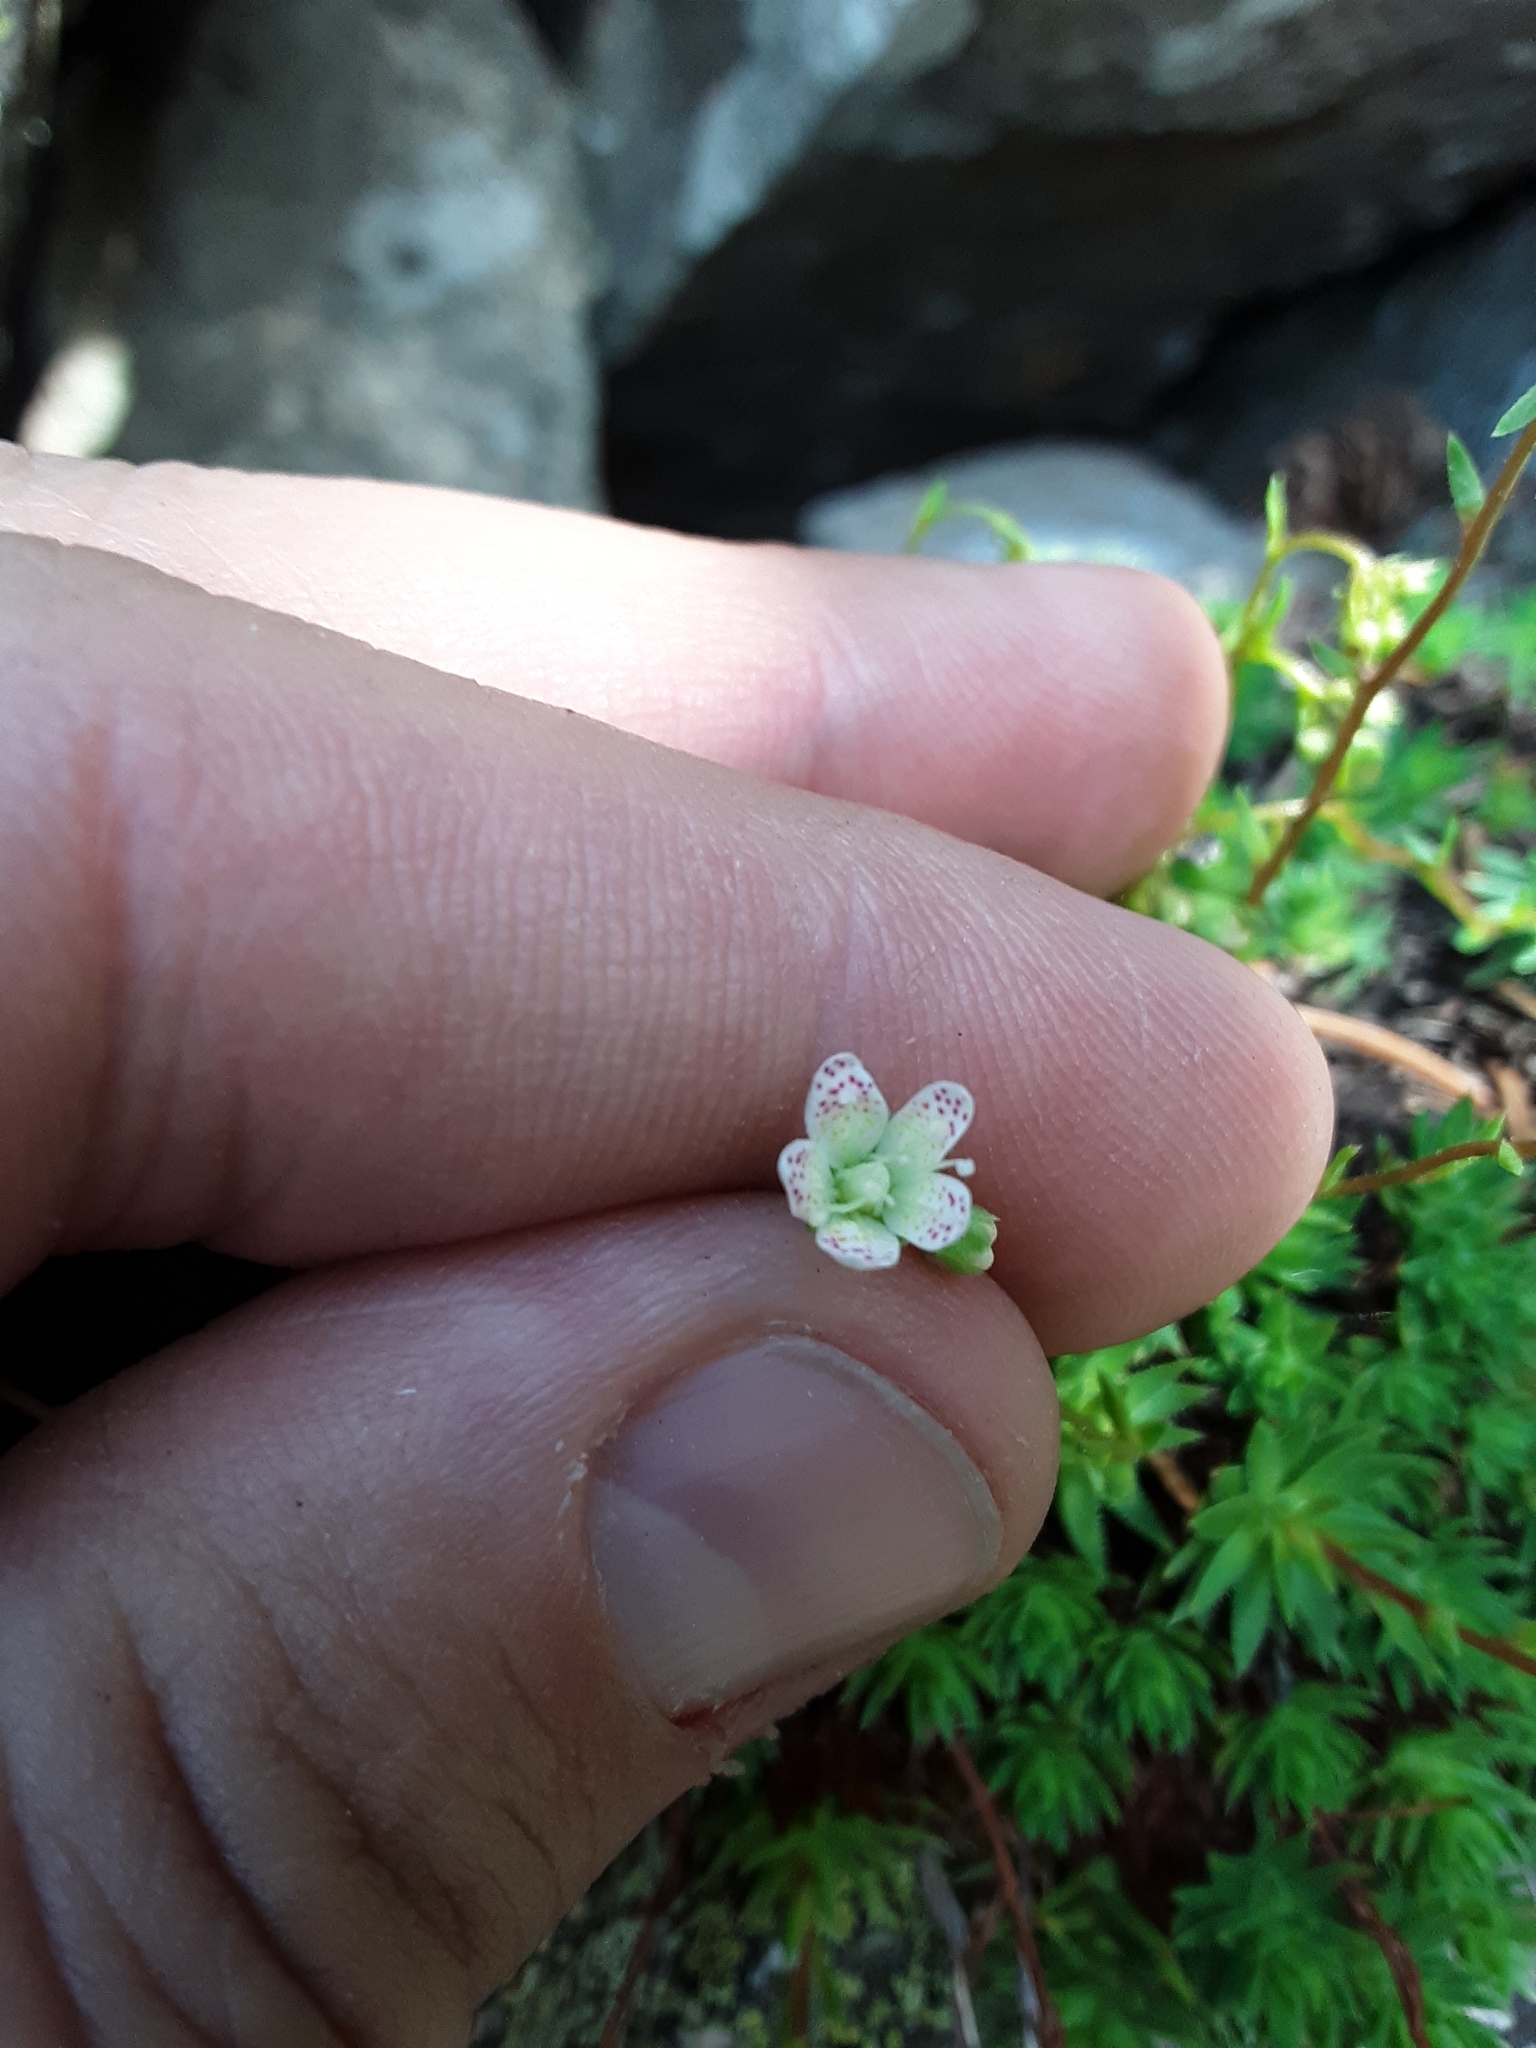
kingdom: Plantae
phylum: Tracheophyta
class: Magnoliopsida
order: Saxifragales
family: Saxifragaceae
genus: Saxifraga
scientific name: Saxifraga bronchialis
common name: Matted saxifrage
